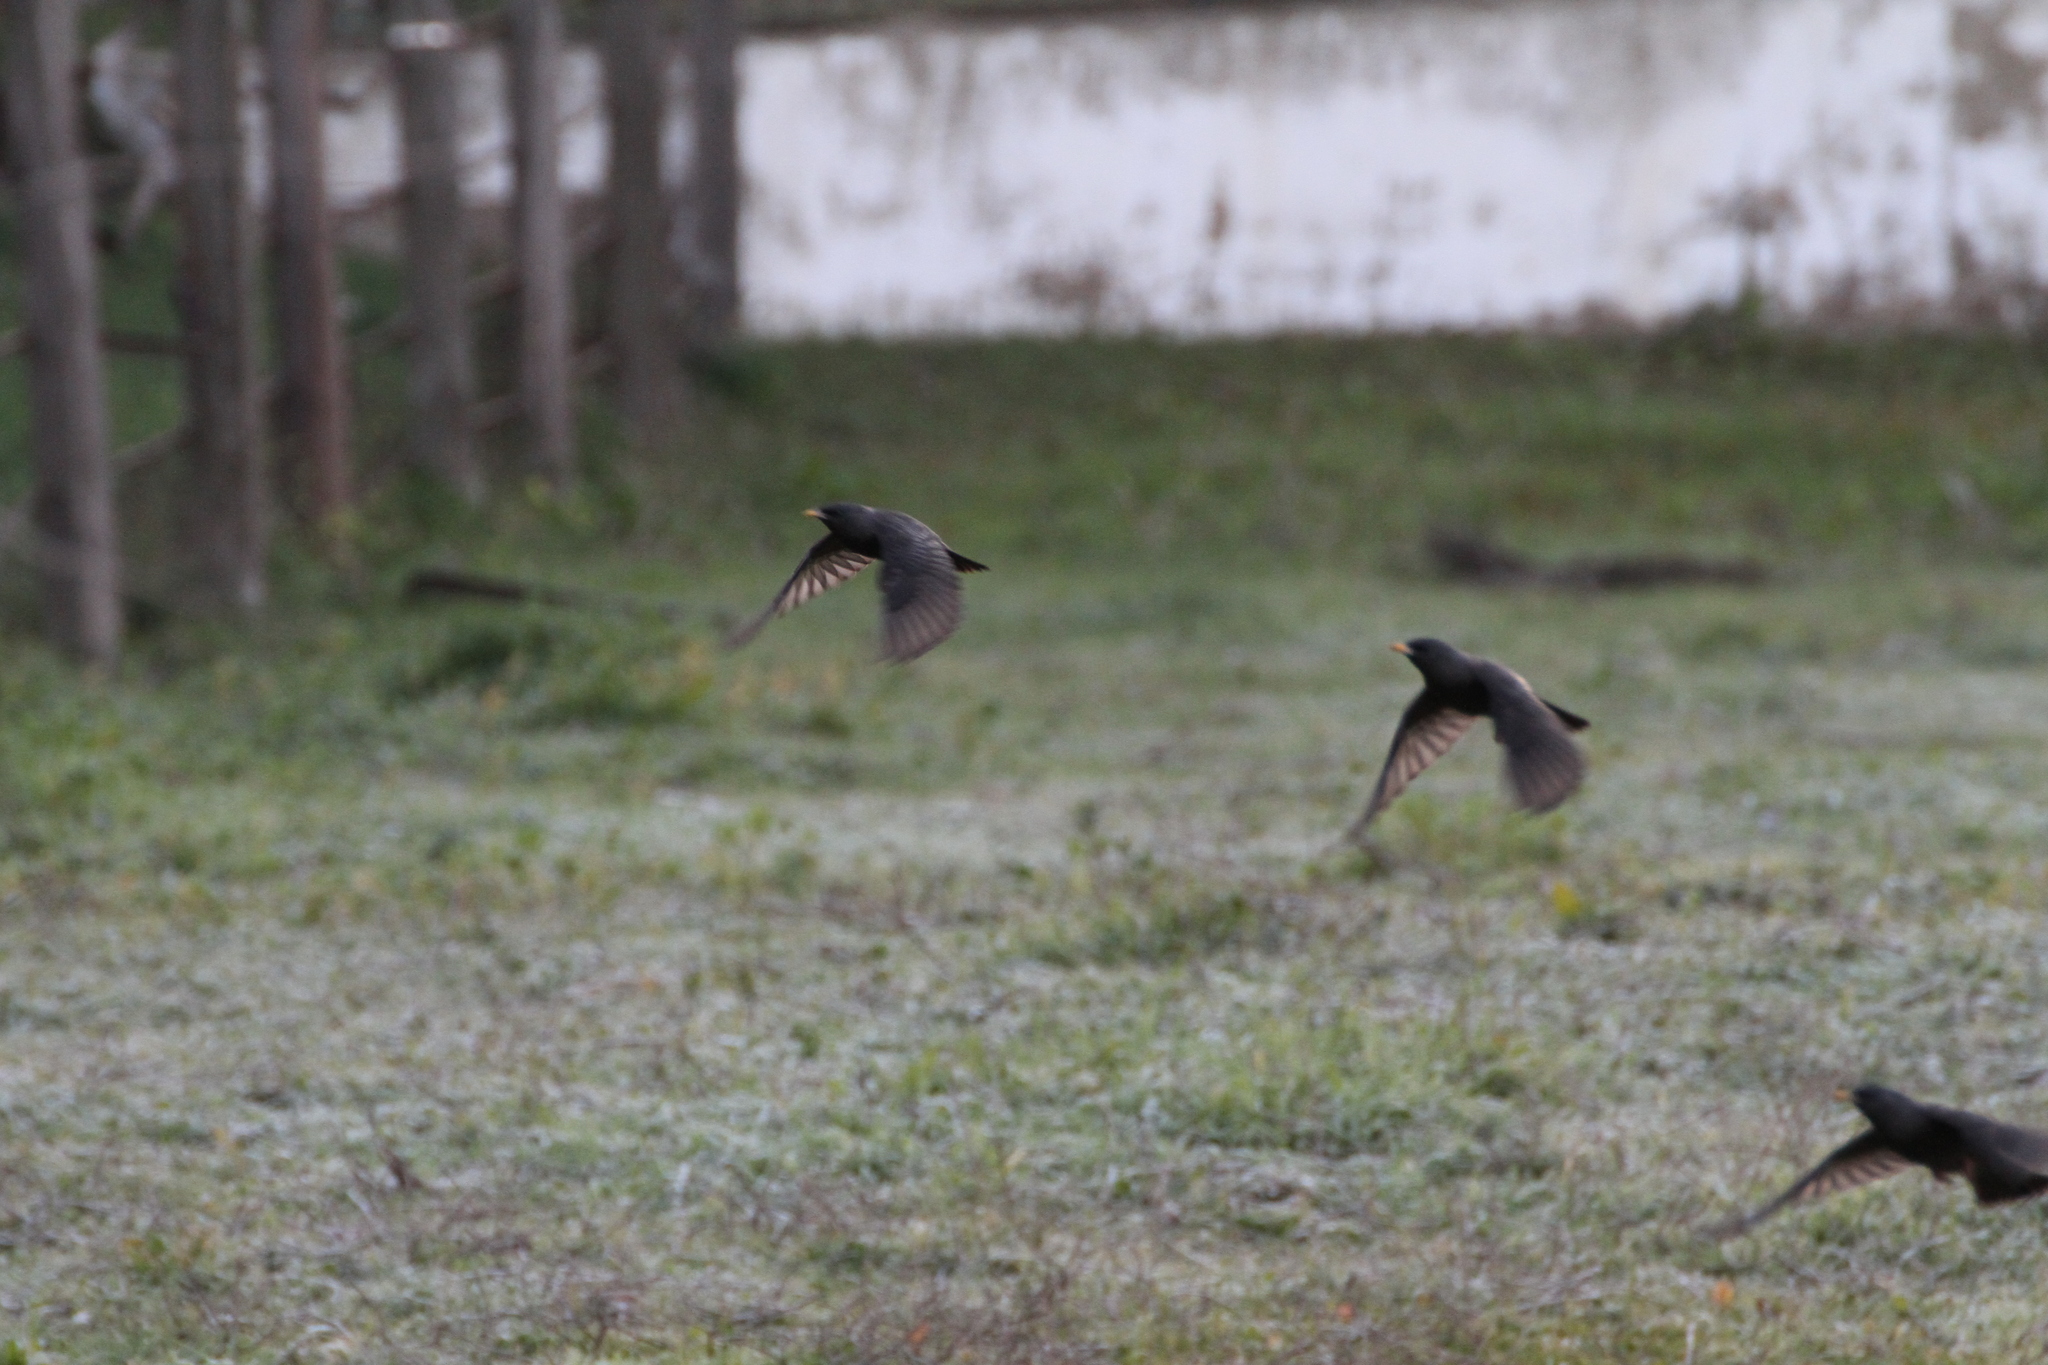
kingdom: Animalia
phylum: Chordata
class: Aves
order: Passeriformes
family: Sturnidae
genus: Sturnus
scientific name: Sturnus unicolor
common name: Spotless starling
